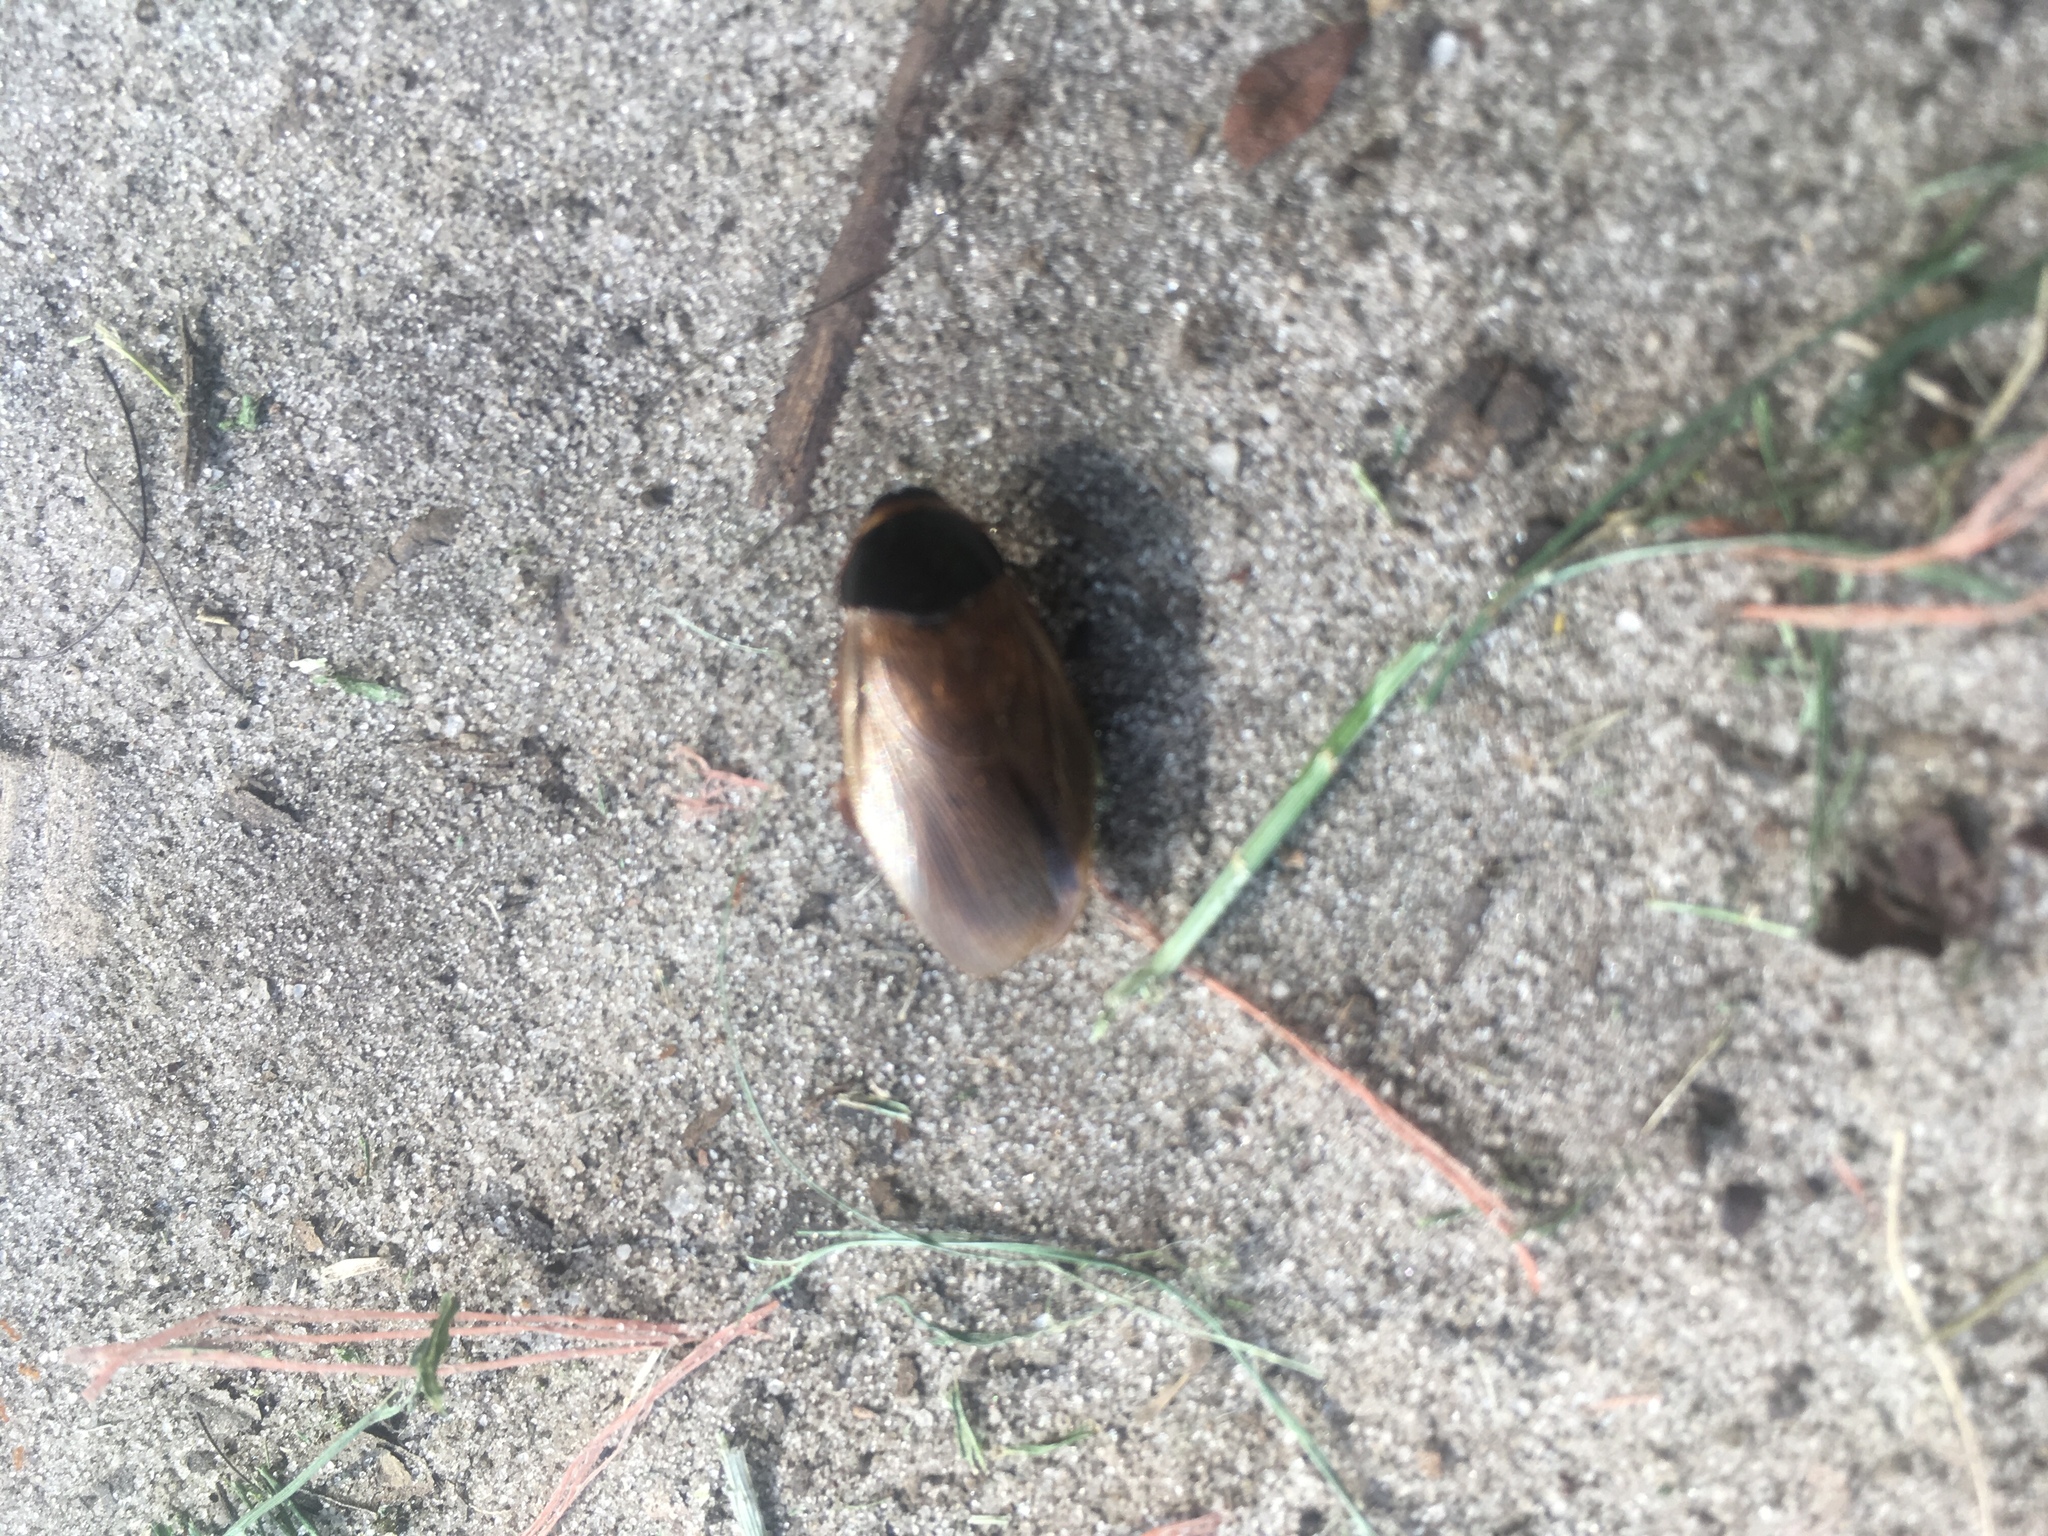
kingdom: Animalia
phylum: Arthropoda
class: Insecta
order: Blattodea
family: Blaberidae
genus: Pycnoscelus
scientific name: Pycnoscelus surinamensis
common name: Surinam cockroach
